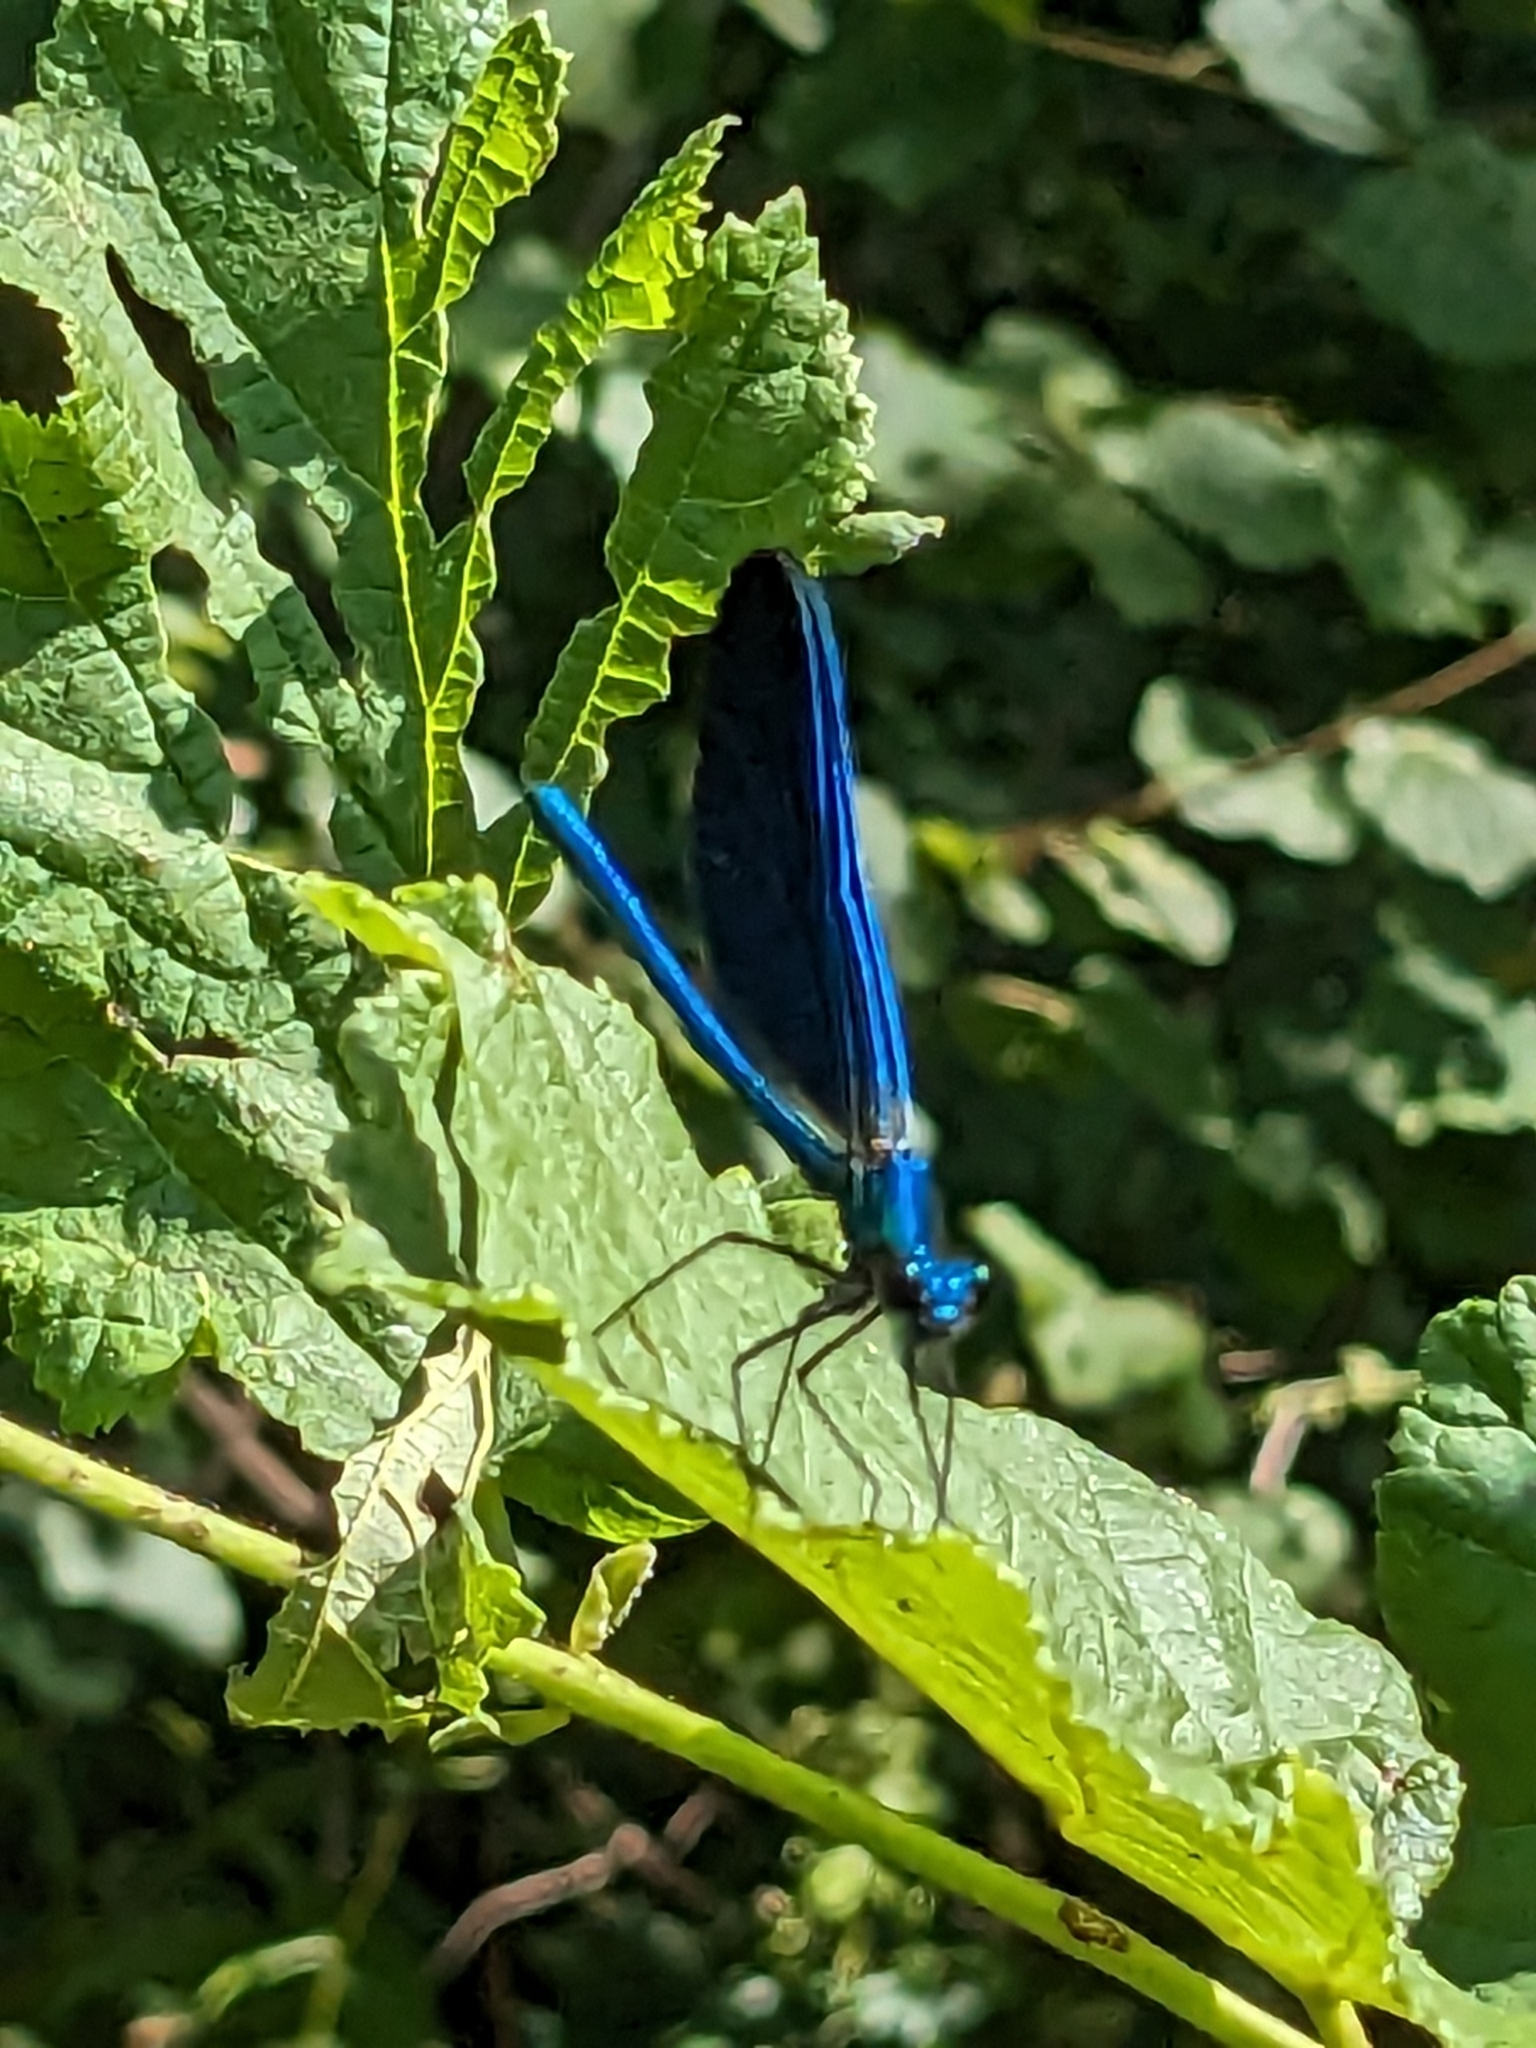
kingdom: Animalia
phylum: Arthropoda
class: Insecta
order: Odonata
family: Calopterygidae
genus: Calopteryx
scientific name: Calopteryx virgo
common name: Beautiful demoiselle
